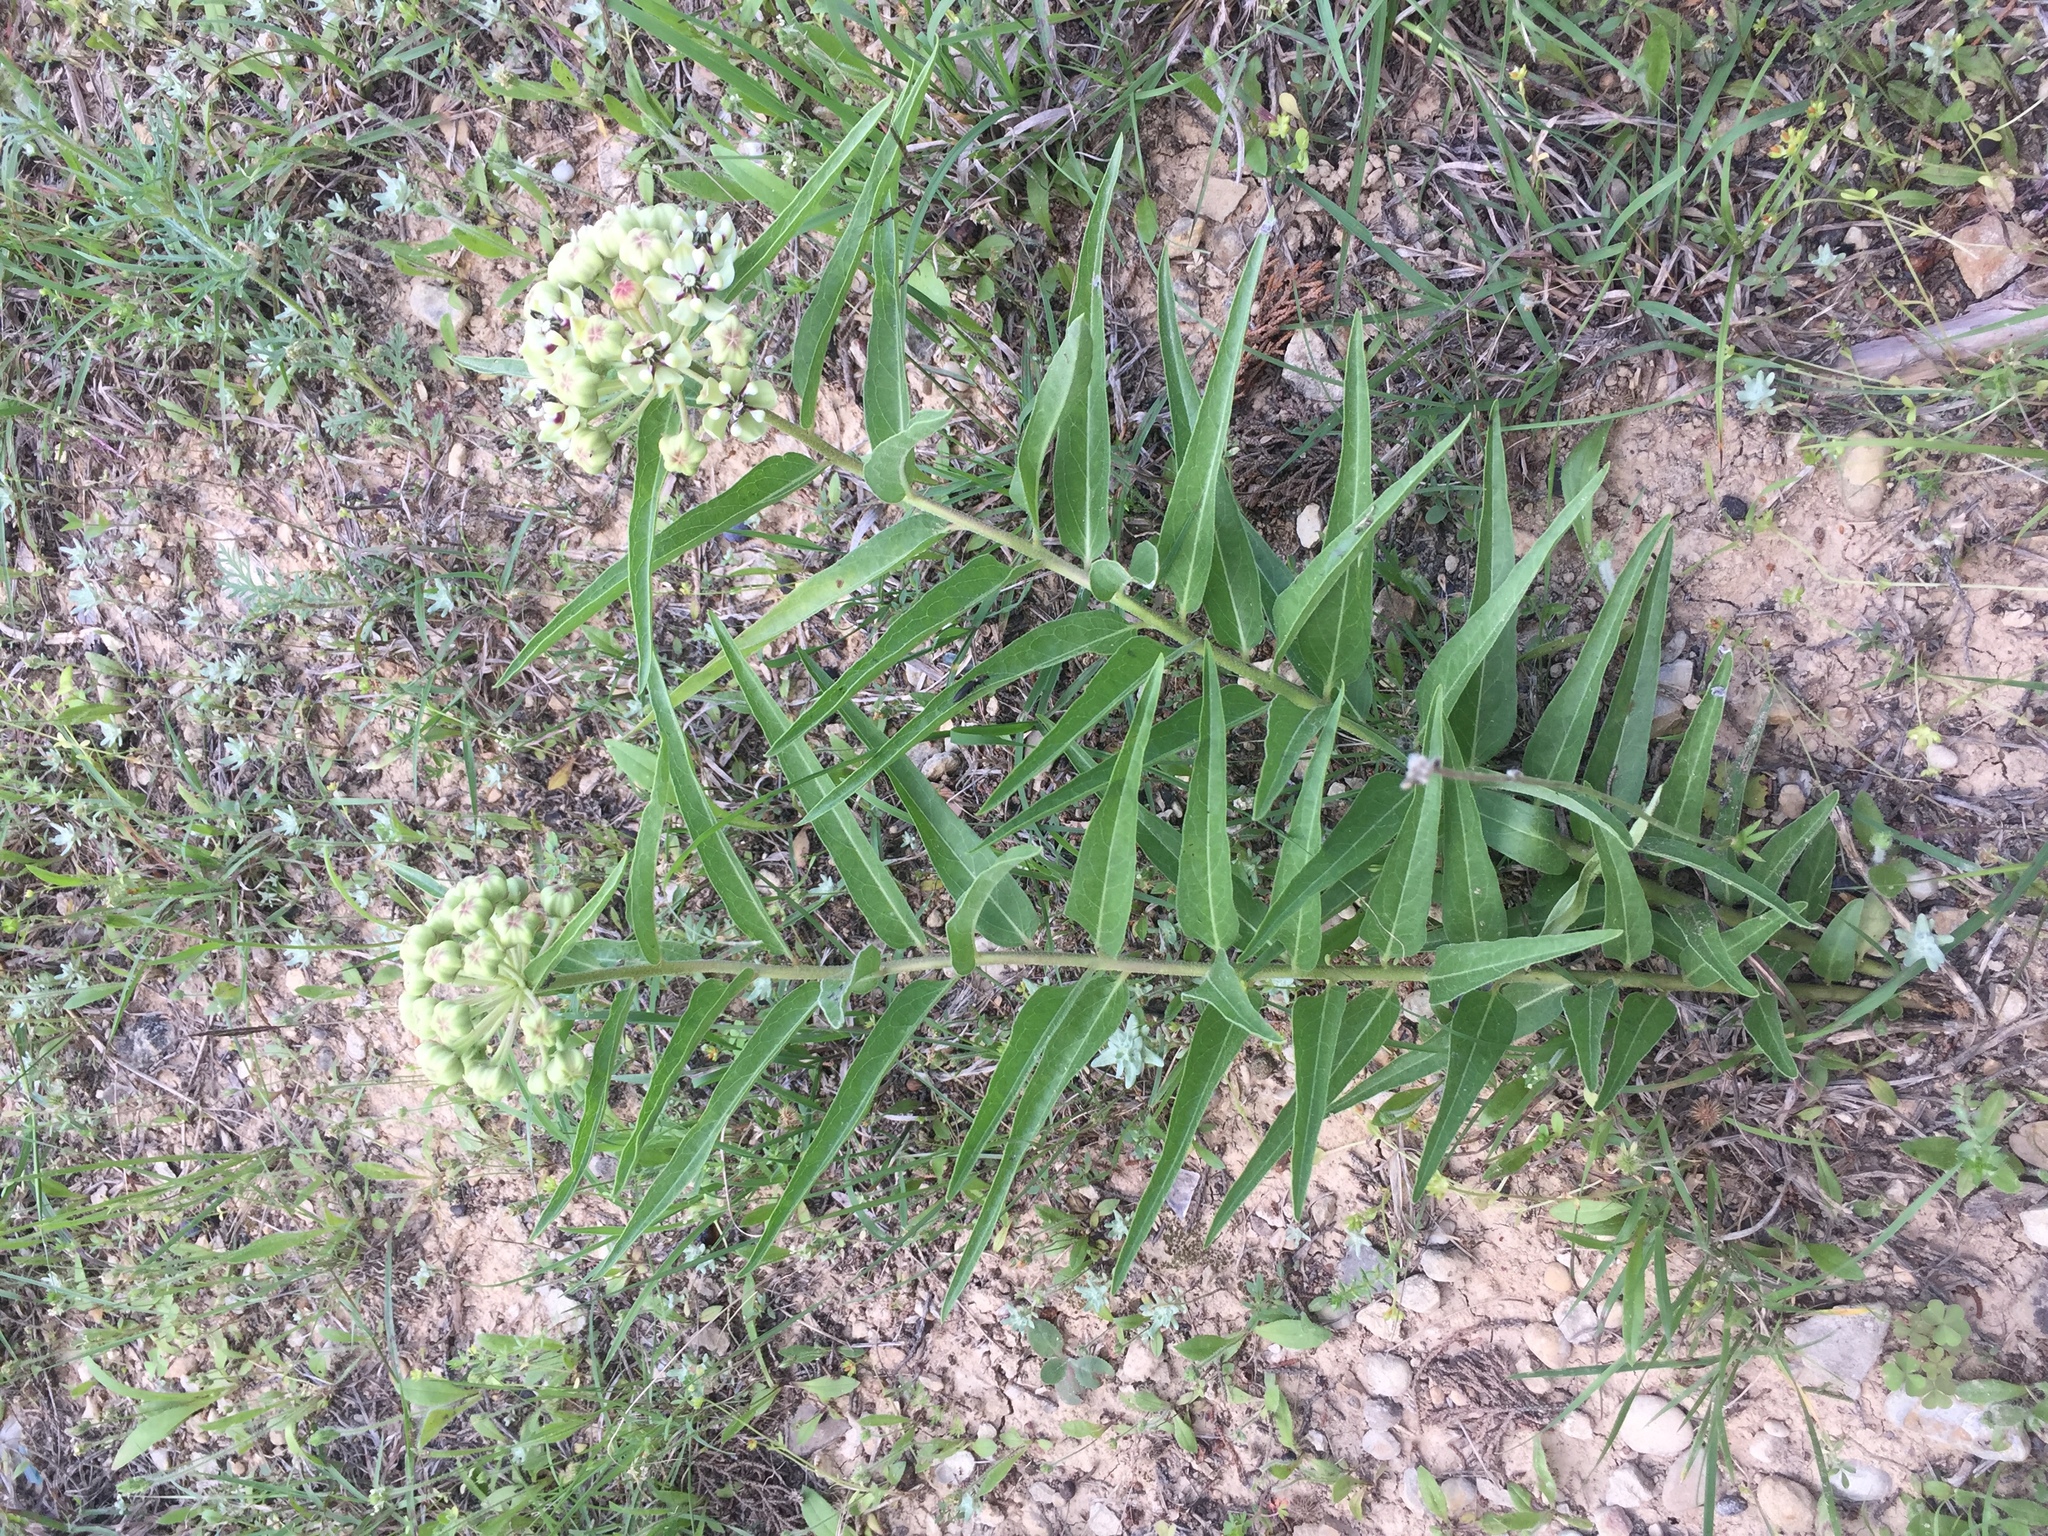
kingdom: Plantae
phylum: Tracheophyta
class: Magnoliopsida
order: Gentianales
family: Apocynaceae
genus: Asclepias
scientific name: Asclepias asperula
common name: Antelope horns
